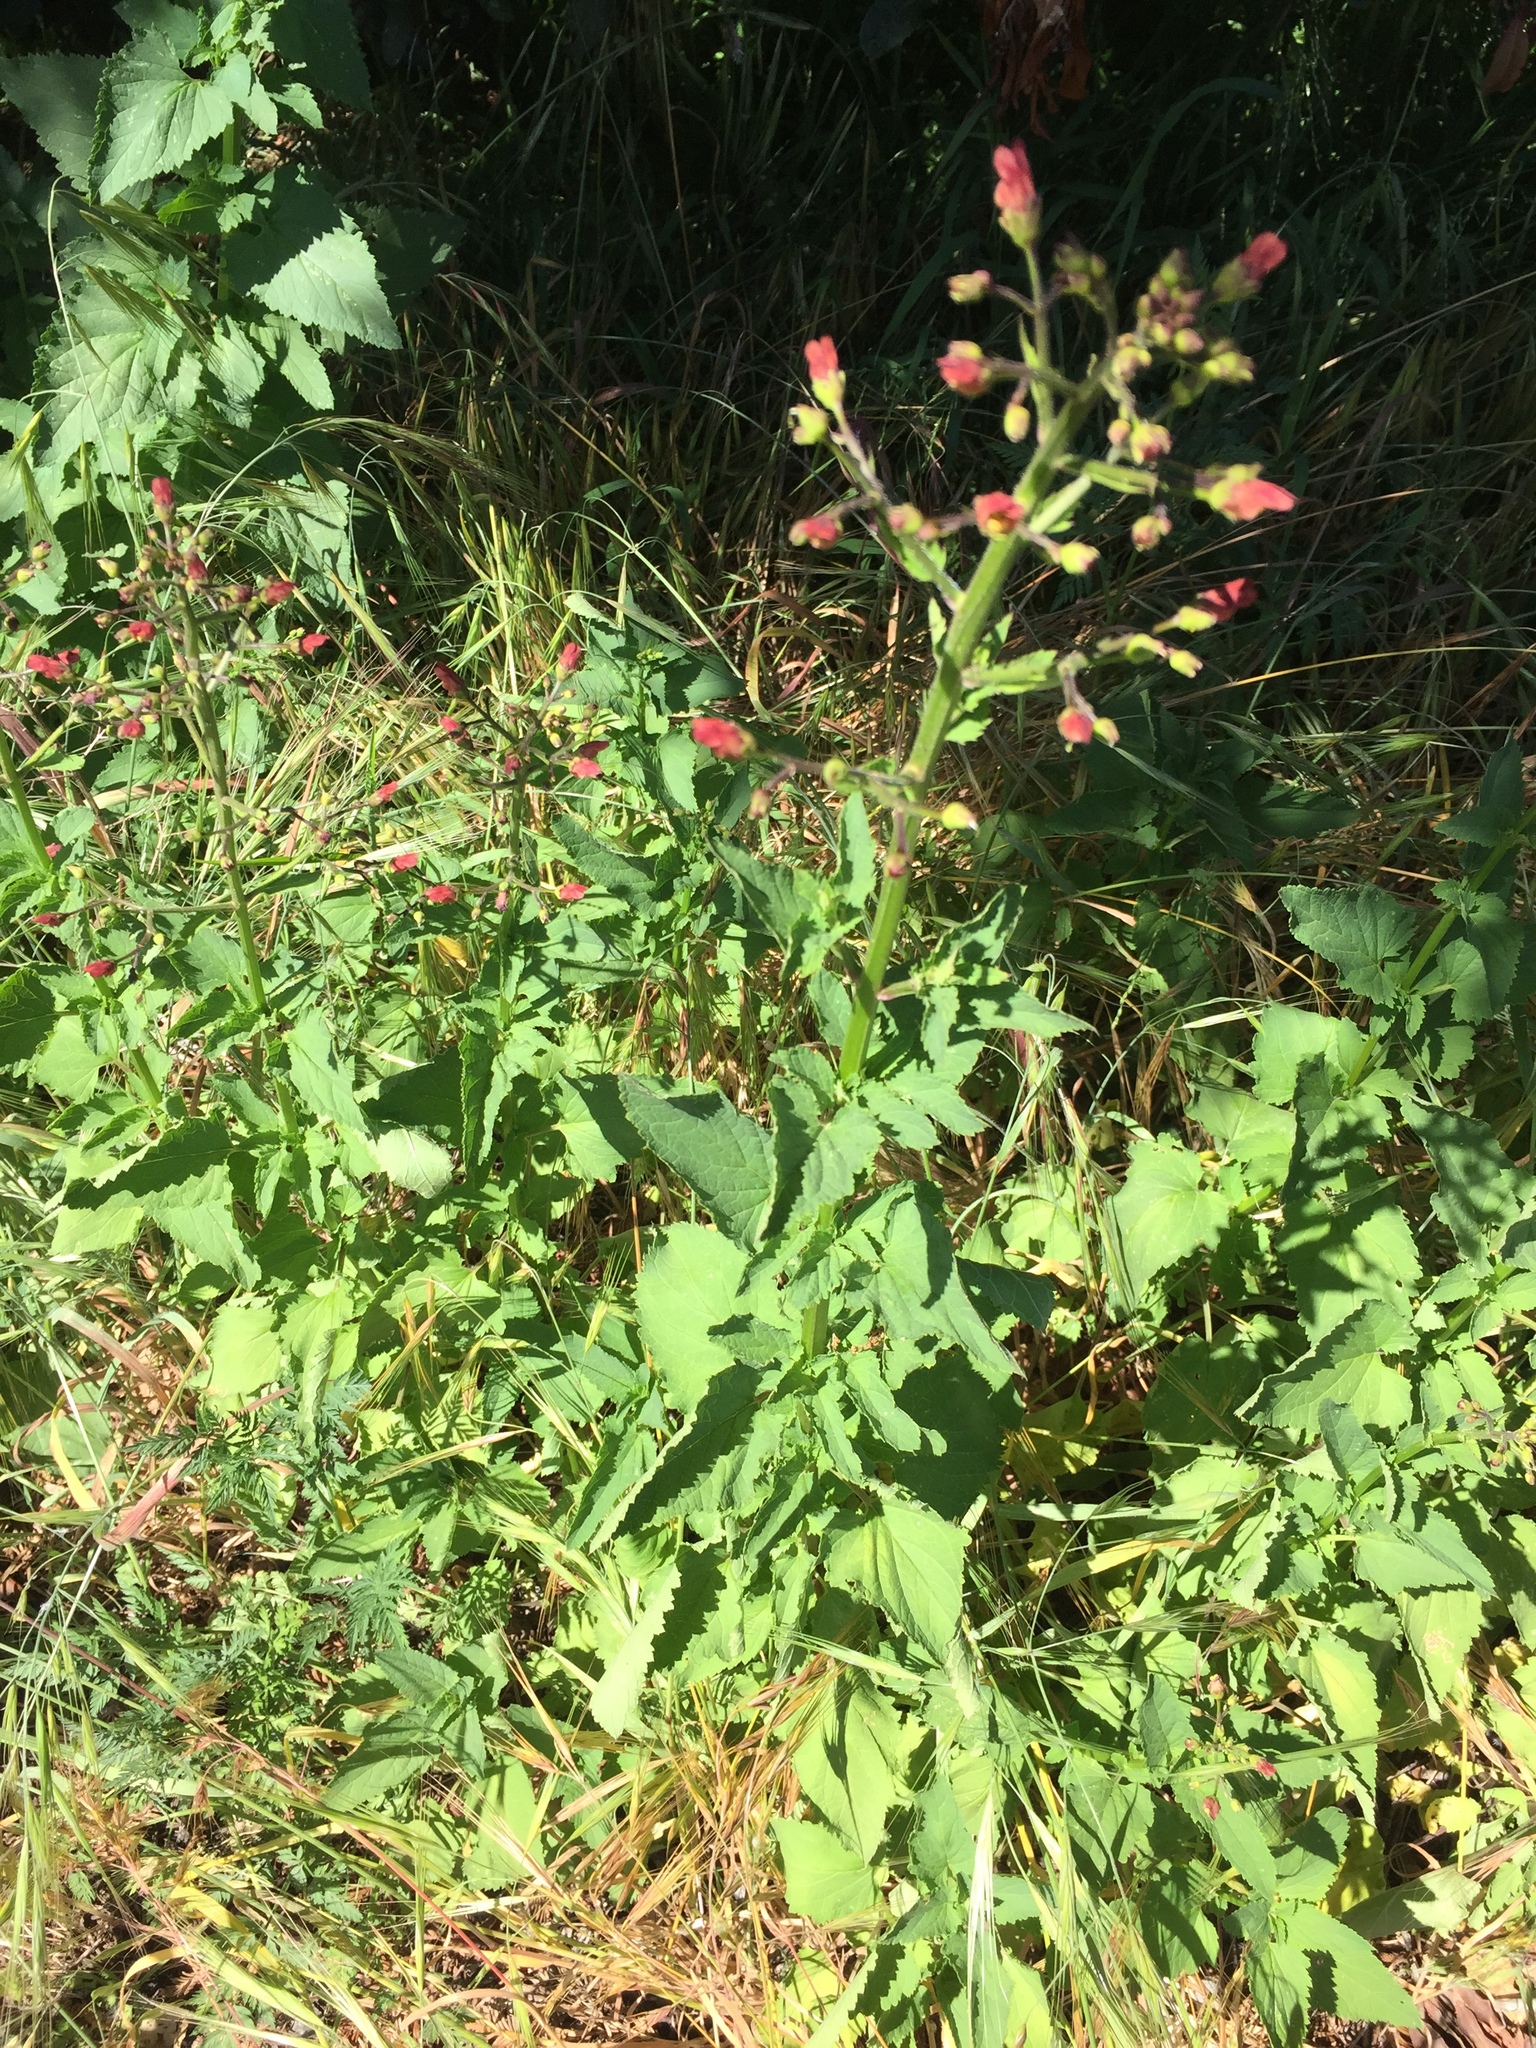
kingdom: Plantae
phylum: Tracheophyta
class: Magnoliopsida
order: Lamiales
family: Scrophulariaceae
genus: Scrophularia
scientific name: Scrophularia californica
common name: California figwort
